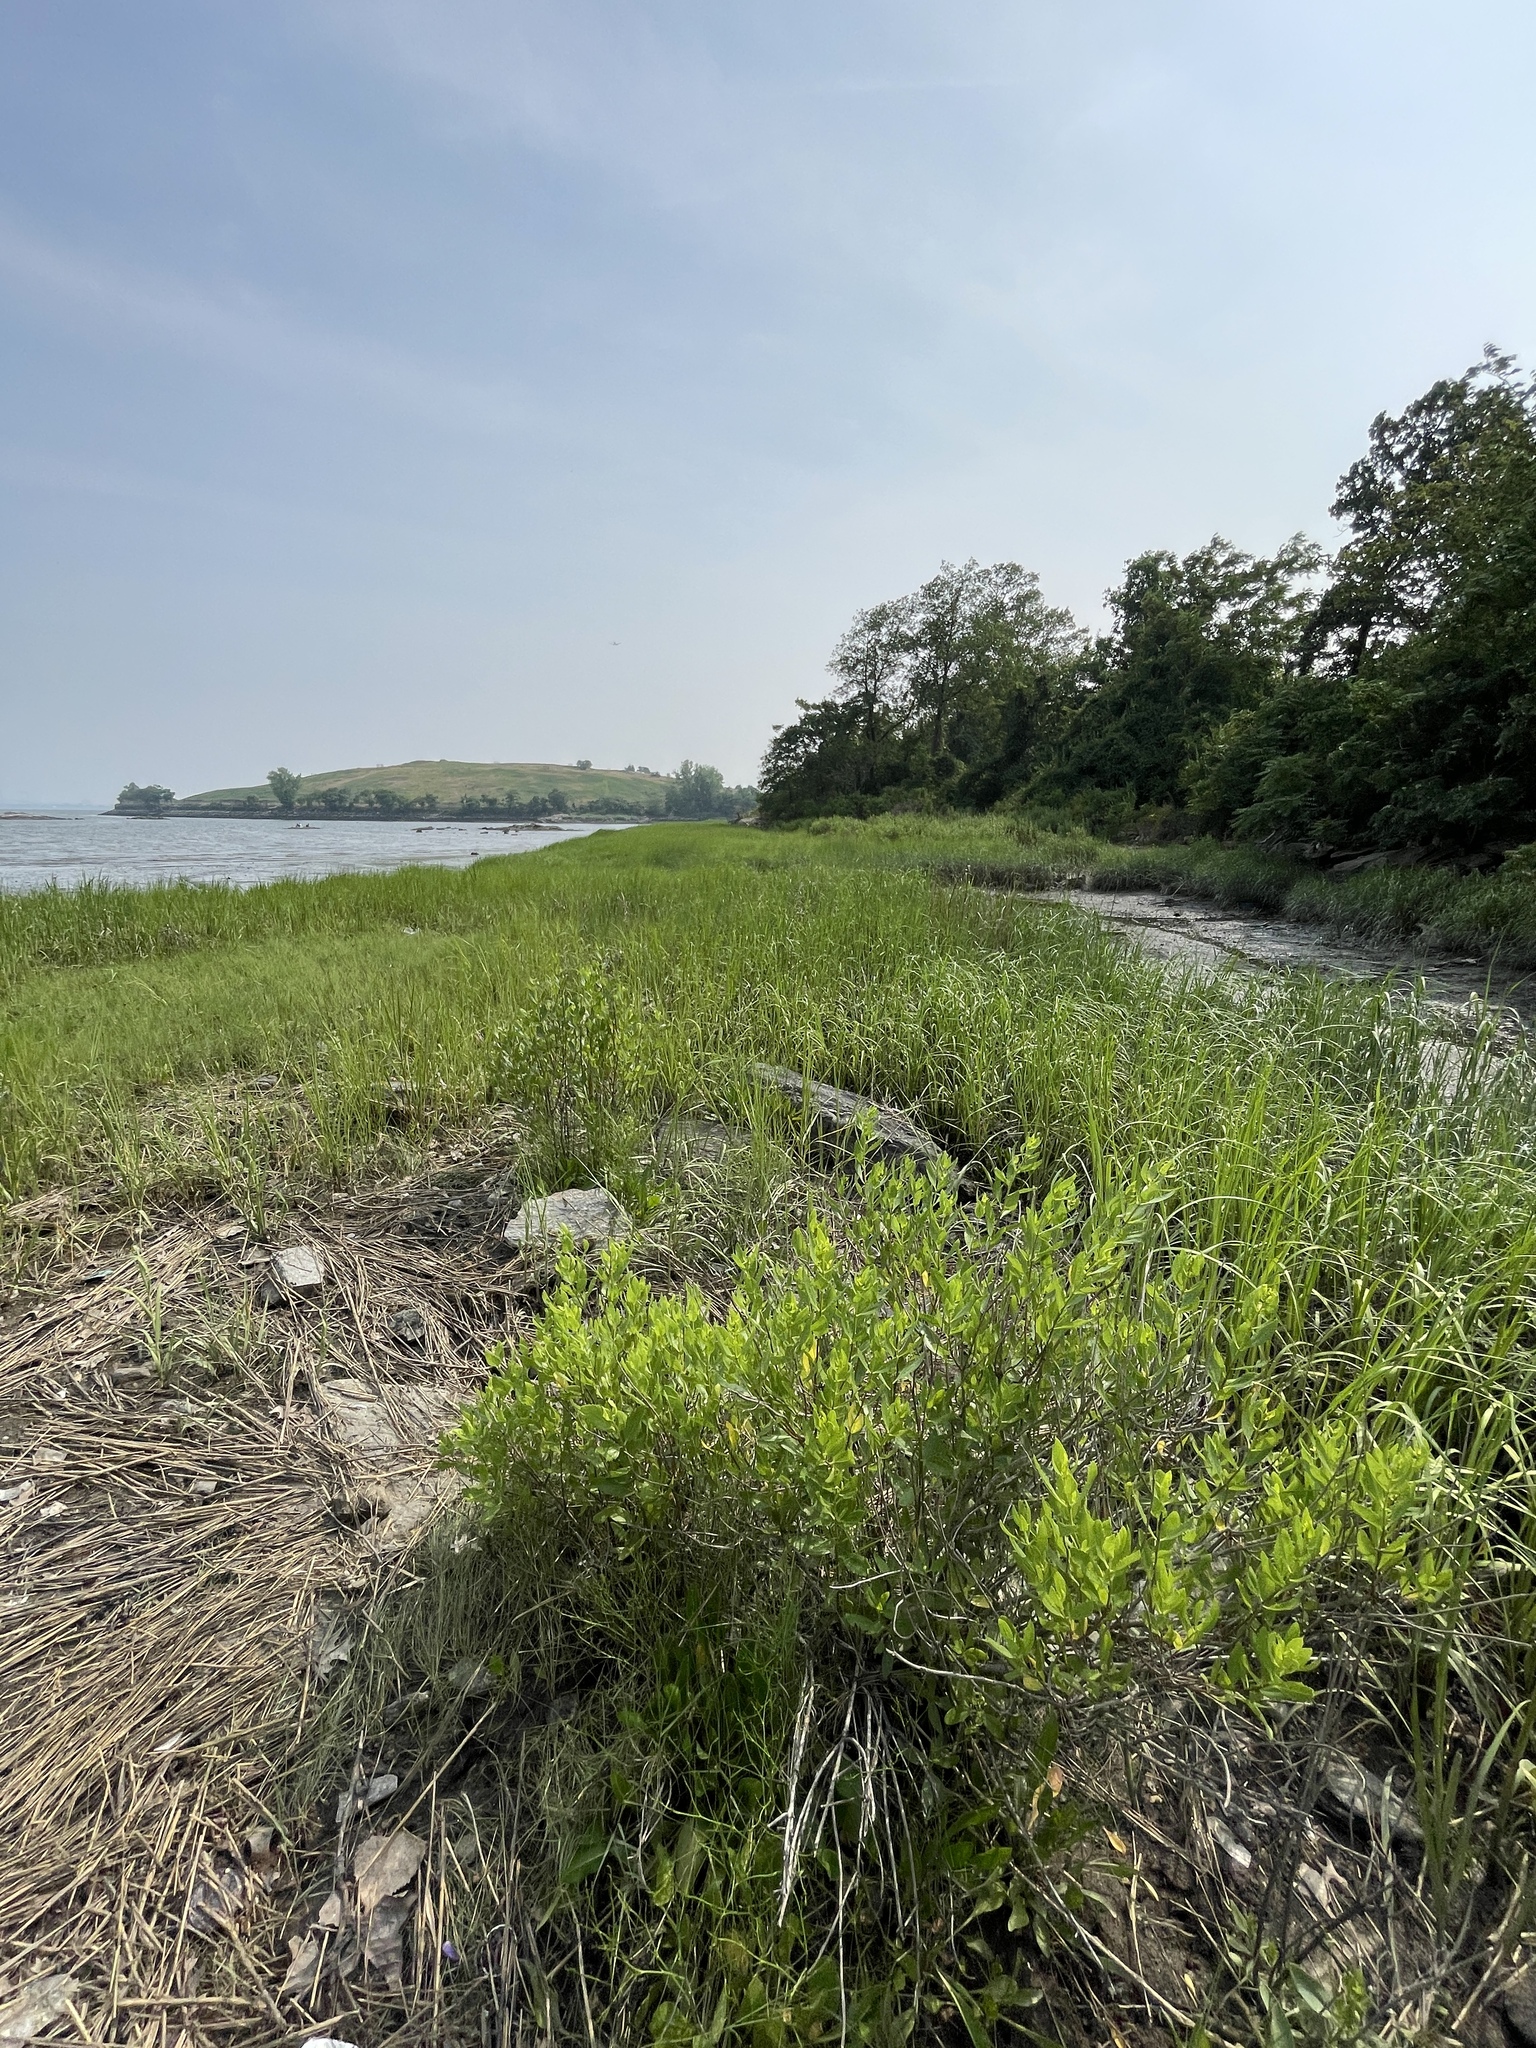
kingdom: Plantae
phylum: Tracheophyta
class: Magnoliopsida
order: Asterales
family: Asteraceae
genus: Iva
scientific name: Iva frutescens
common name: Big-leaved marsh-elder
